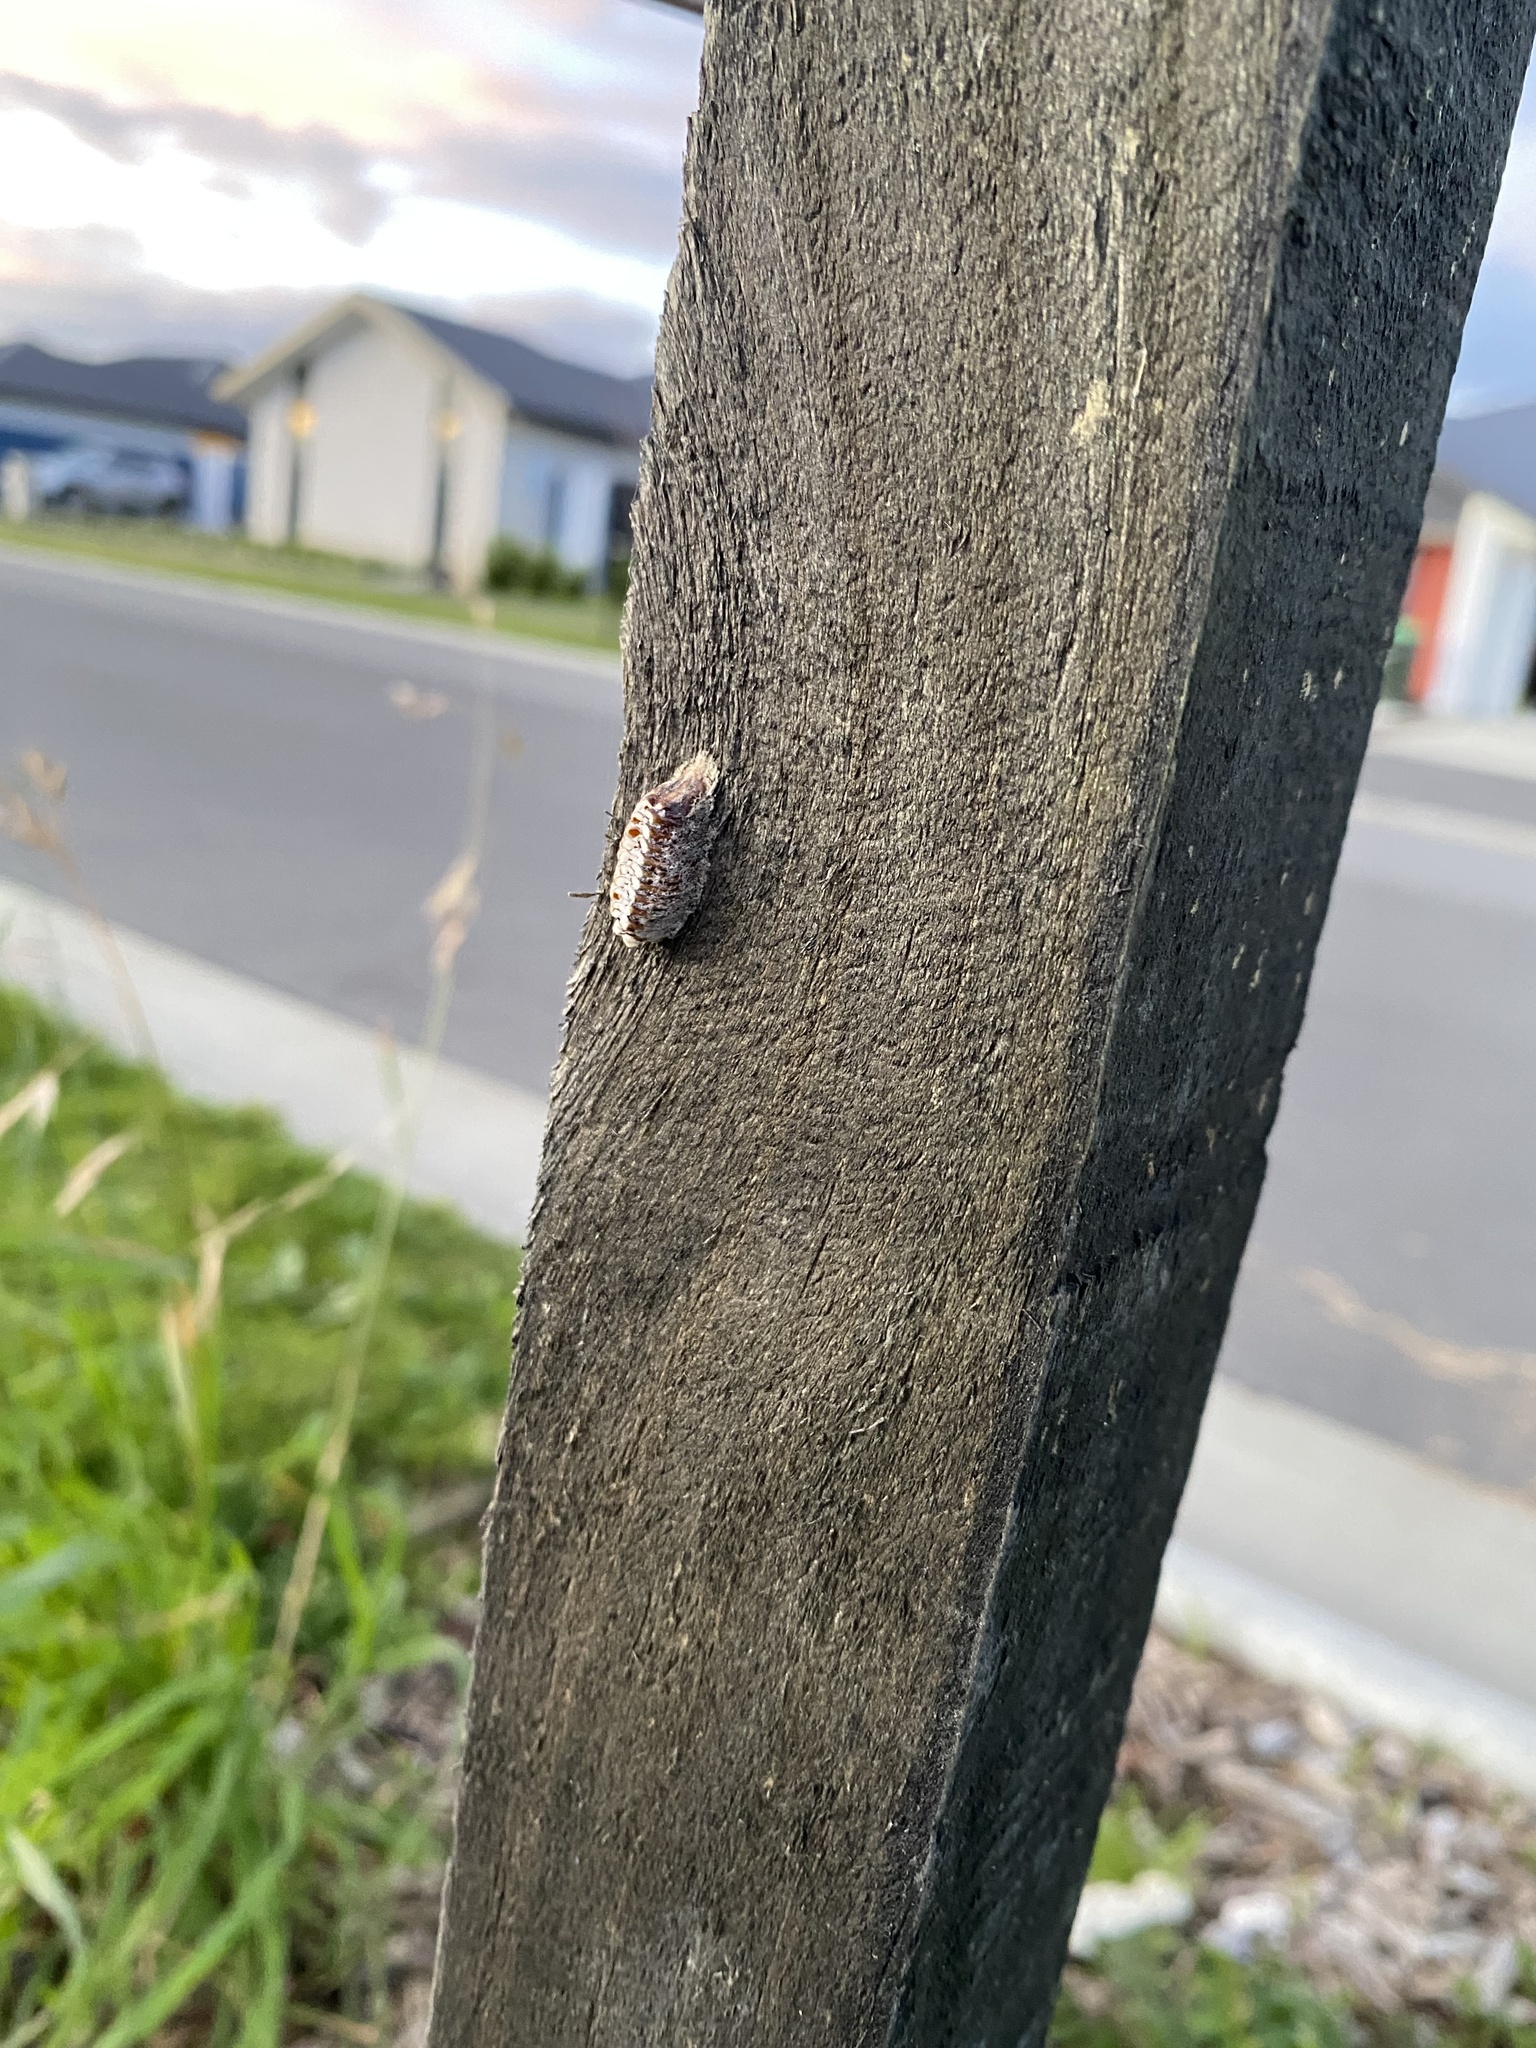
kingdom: Animalia
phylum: Arthropoda
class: Insecta
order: Mantodea
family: Mantidae
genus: Orthodera
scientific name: Orthodera novaezealandiae
